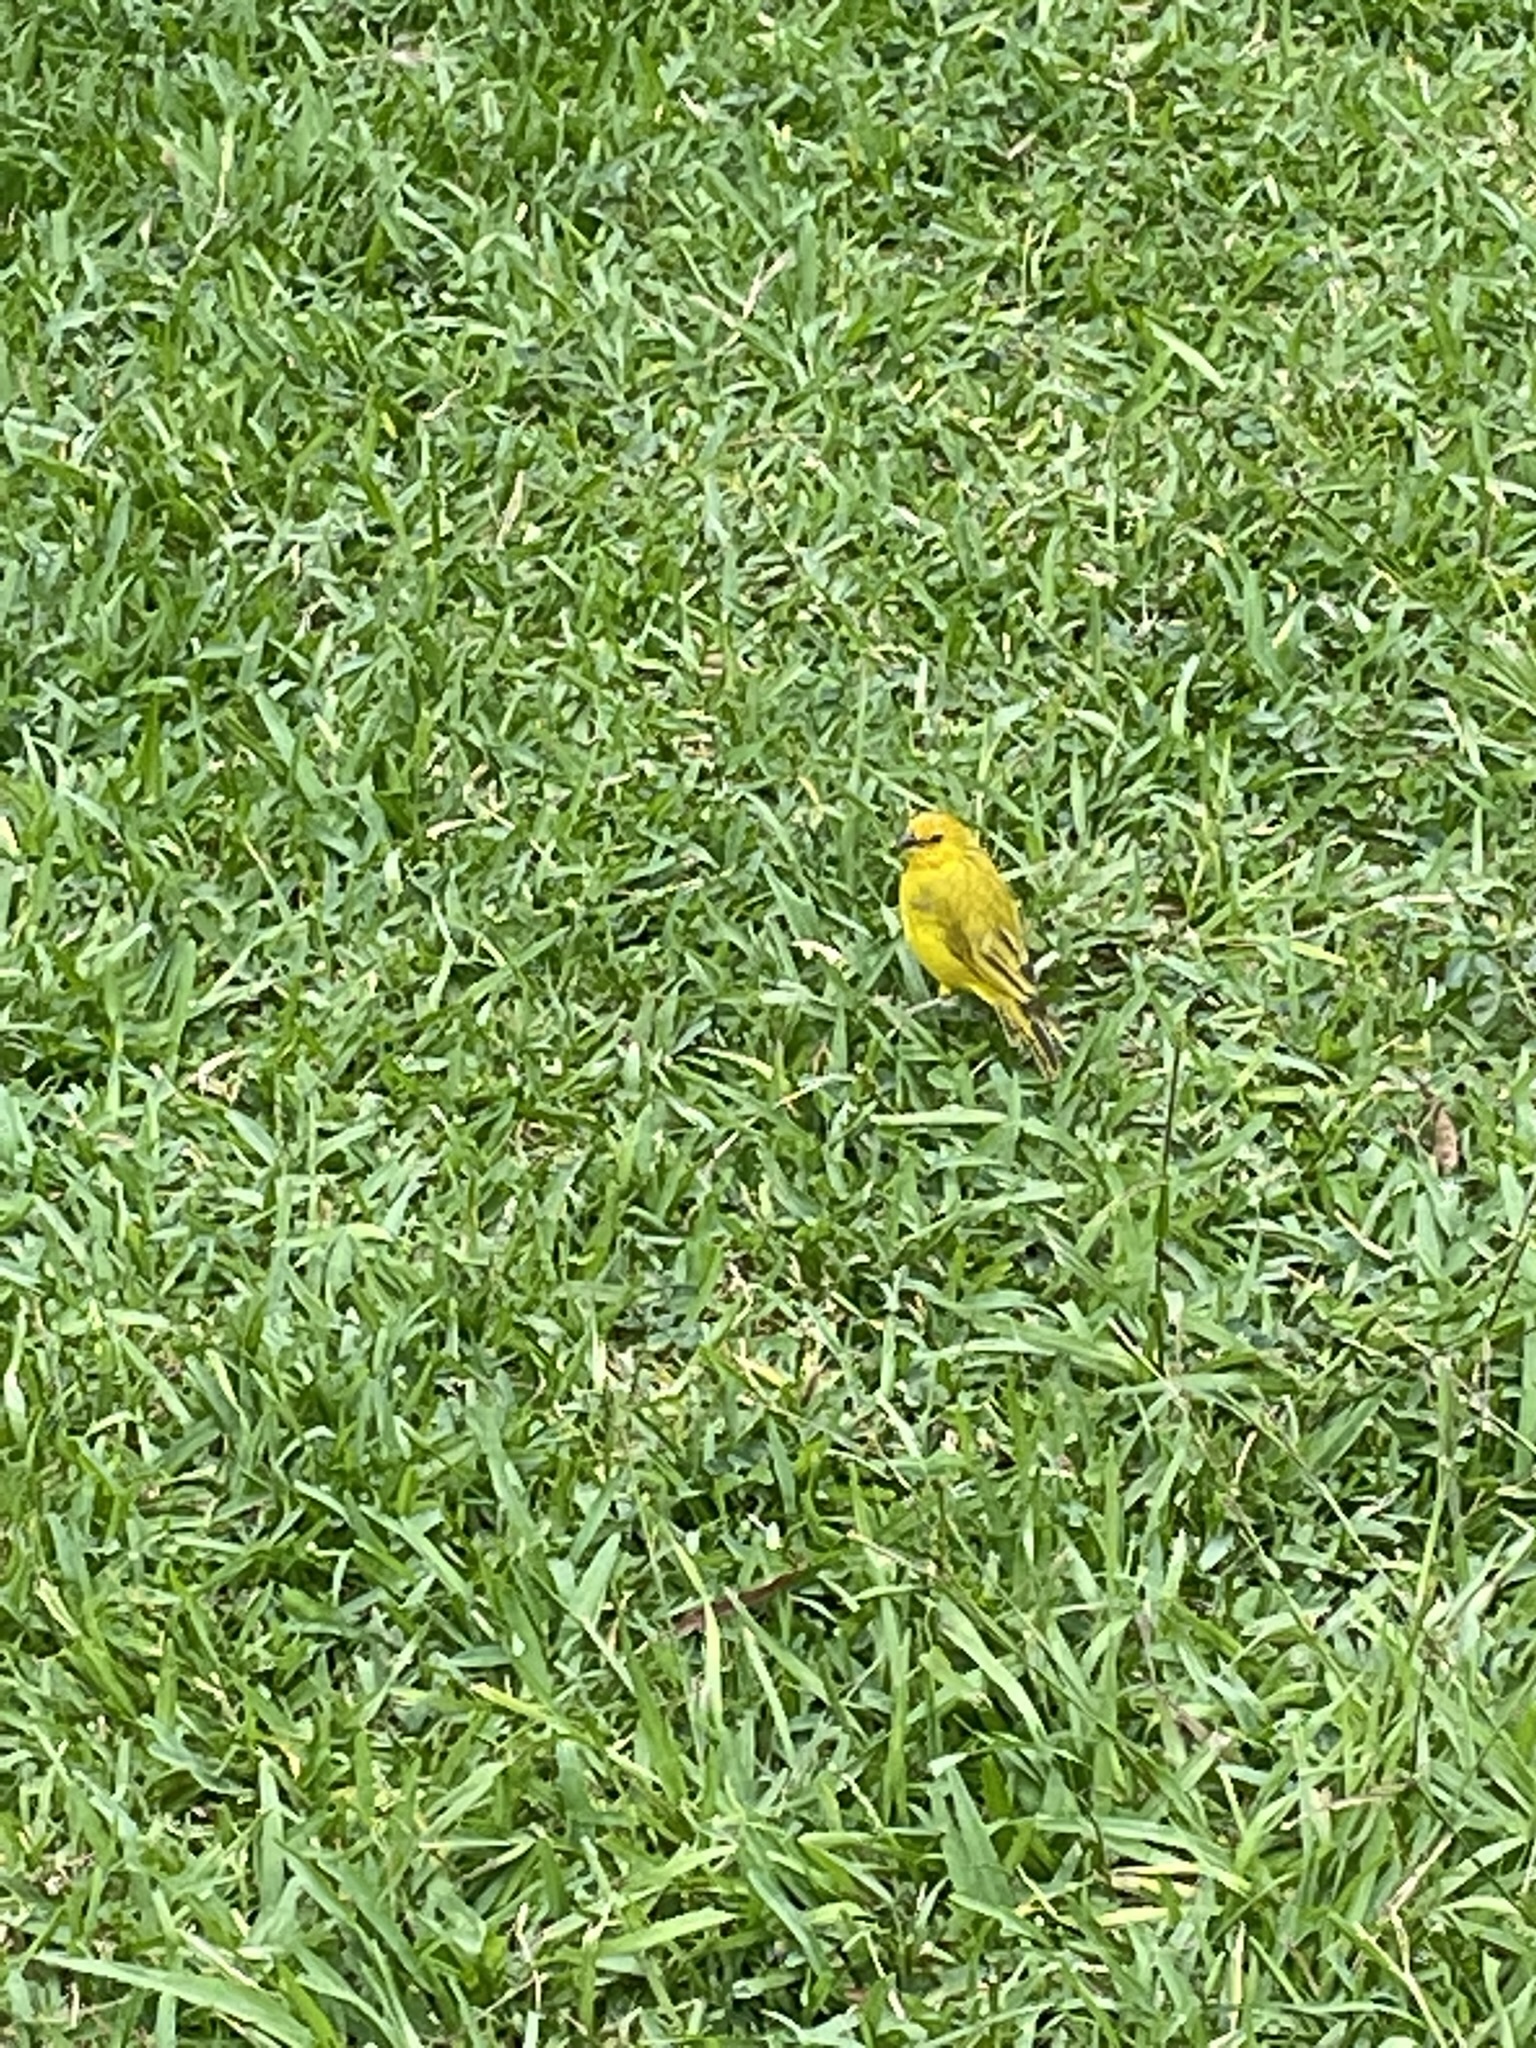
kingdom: Animalia
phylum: Chordata
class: Aves
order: Passeriformes
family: Thraupidae
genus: Sicalis
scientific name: Sicalis flaveola
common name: Saffron finch
